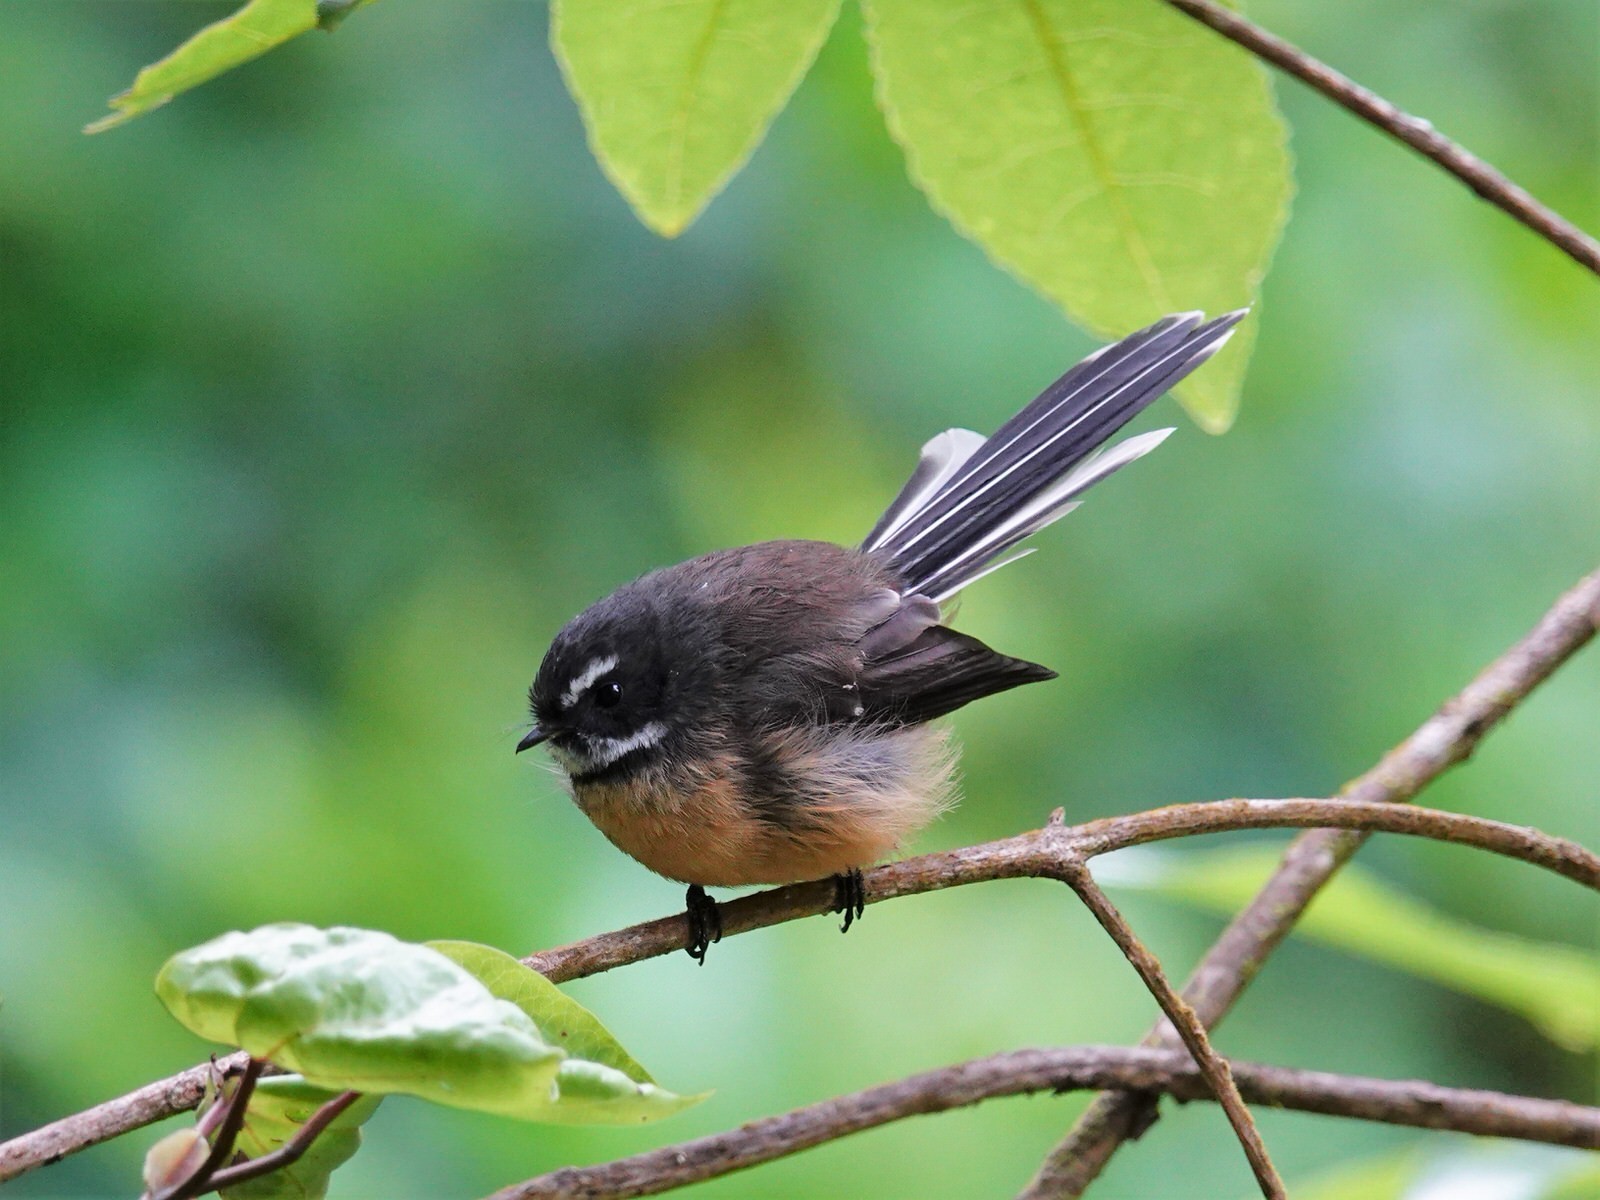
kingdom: Animalia
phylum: Chordata
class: Aves
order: Passeriformes
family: Rhipiduridae
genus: Rhipidura
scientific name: Rhipidura fuliginosa
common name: New zealand fantail
